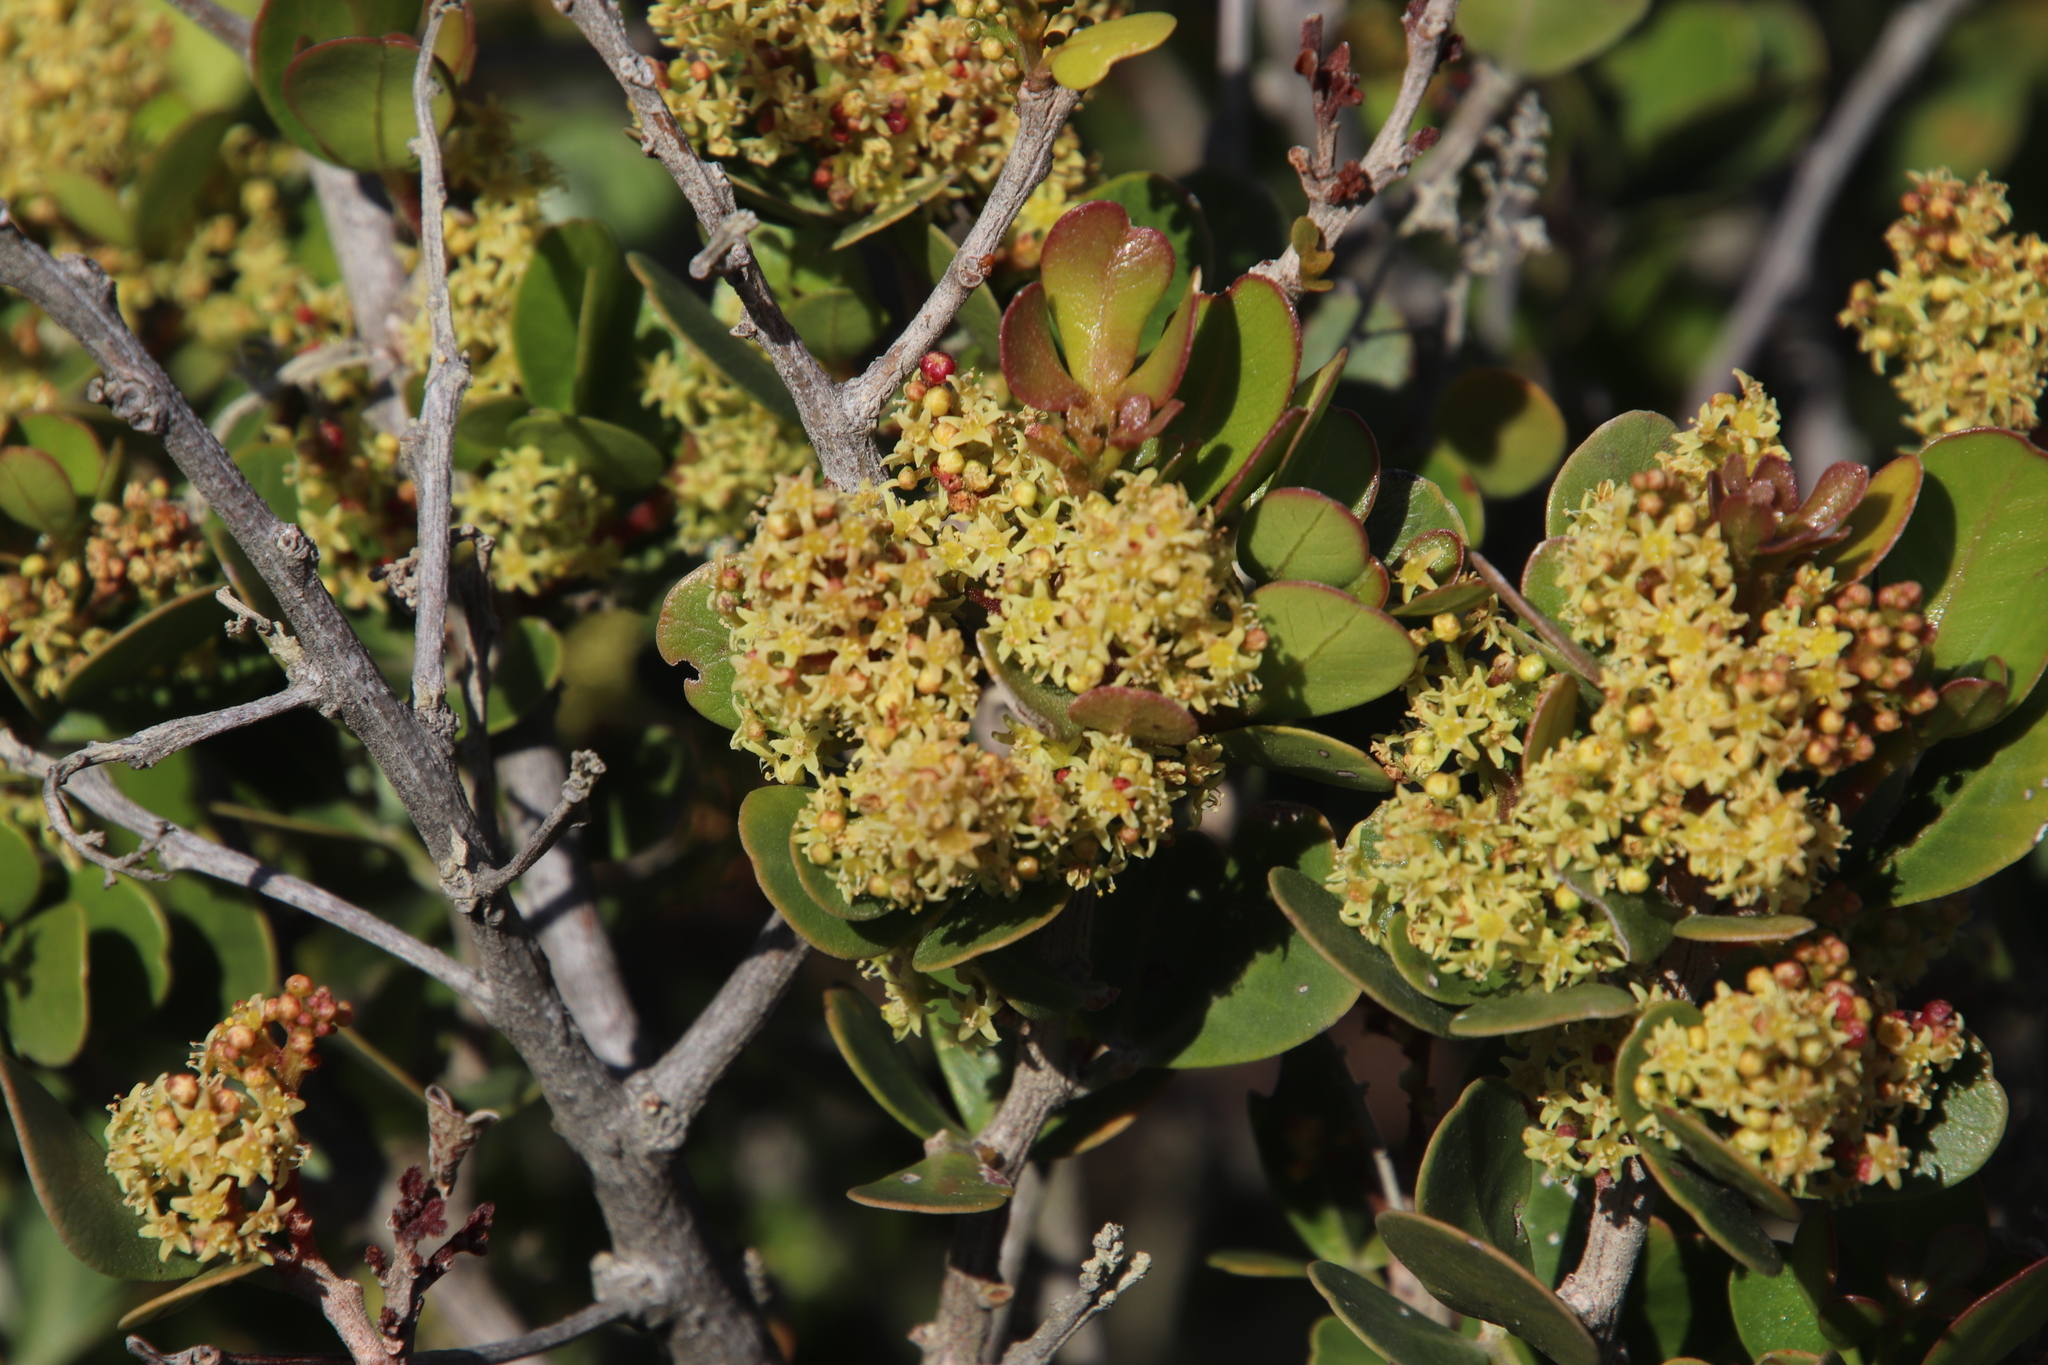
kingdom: Plantae
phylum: Tracheophyta
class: Magnoliopsida
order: Sapindales
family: Anacardiaceae
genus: Searsia
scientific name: Searsia lucida
